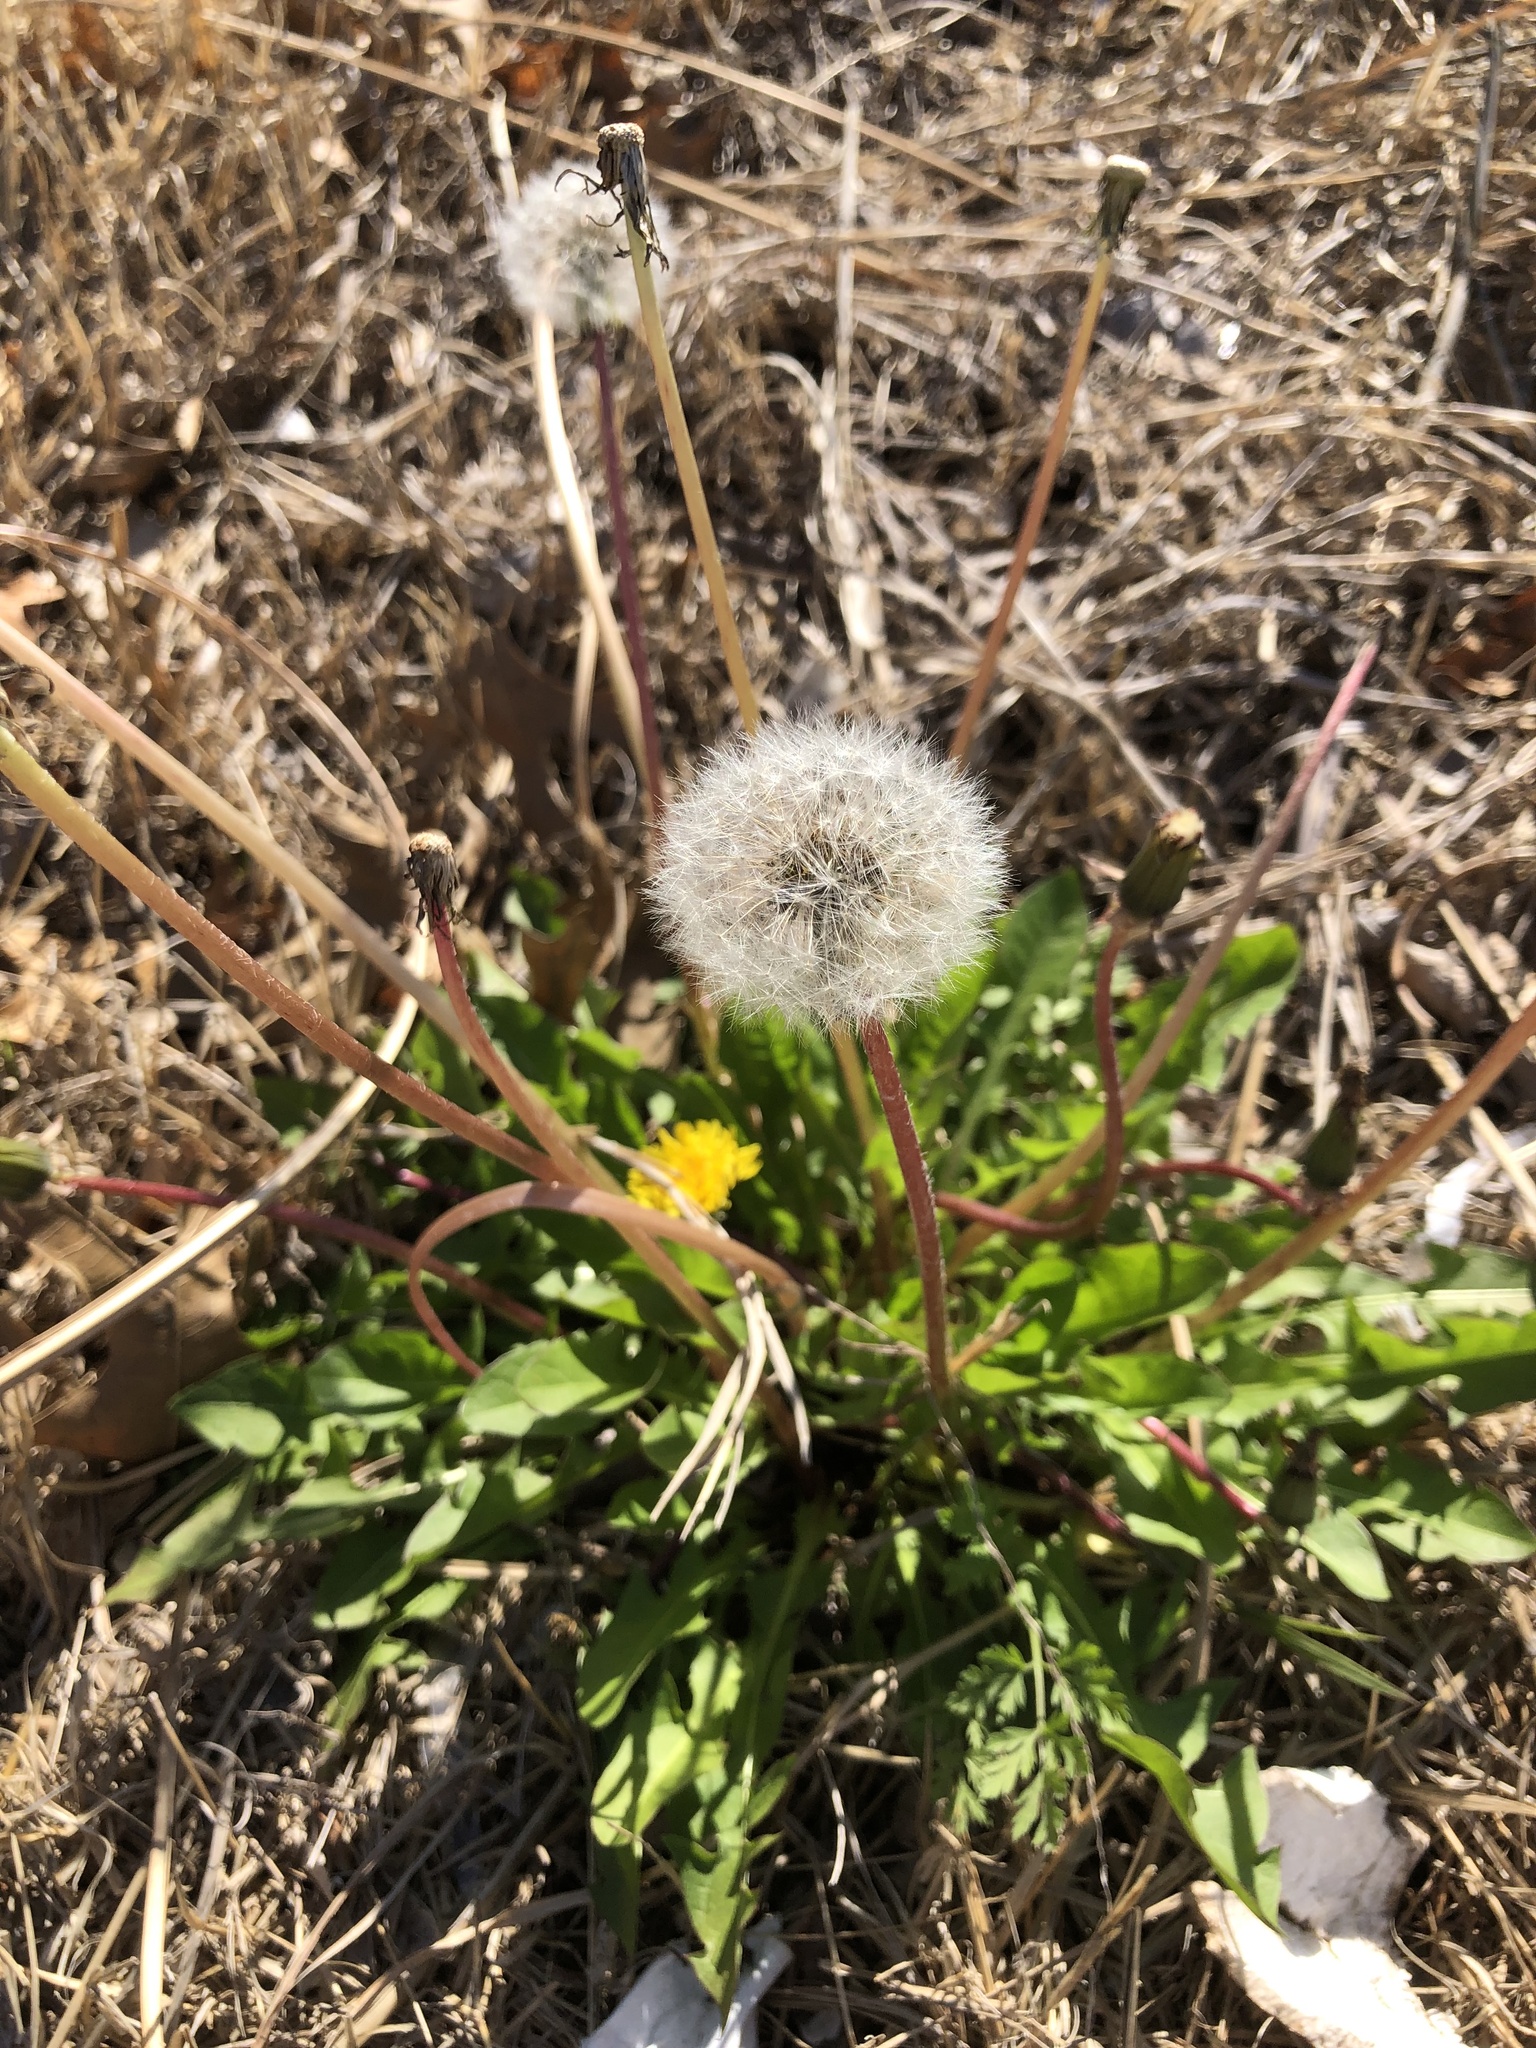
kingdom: Plantae
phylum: Tracheophyta
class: Magnoliopsida
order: Asterales
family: Asteraceae
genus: Taraxacum
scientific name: Taraxacum
